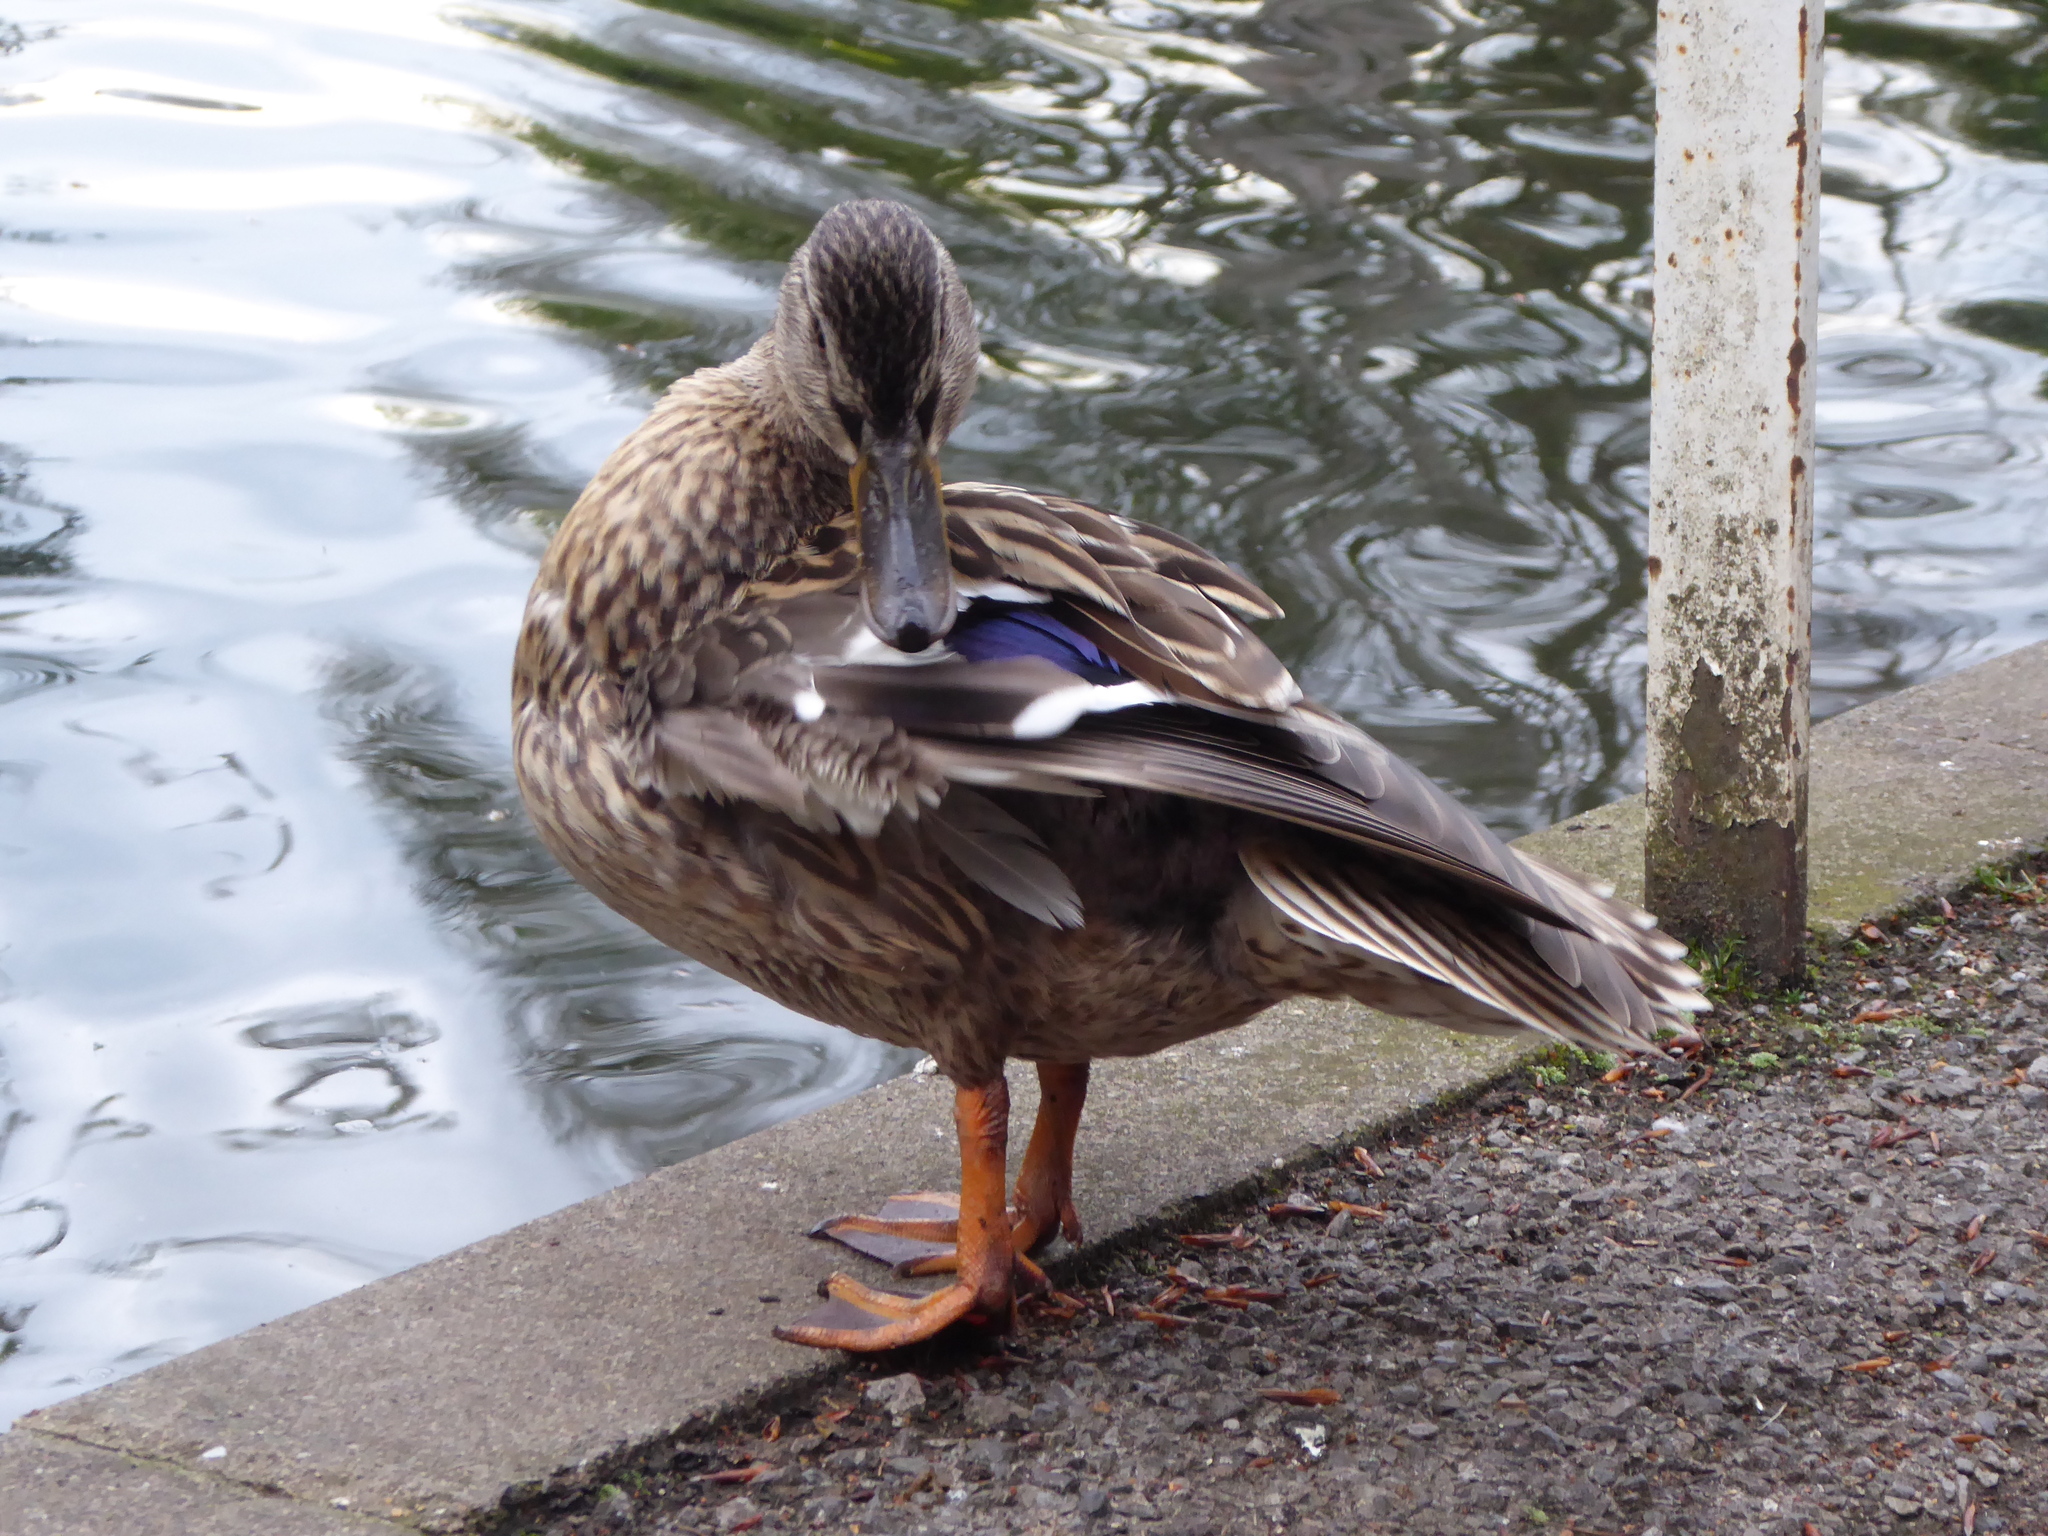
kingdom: Animalia
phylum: Chordata
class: Aves
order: Anseriformes
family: Anatidae
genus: Anas
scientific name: Anas platyrhynchos
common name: Mallard
